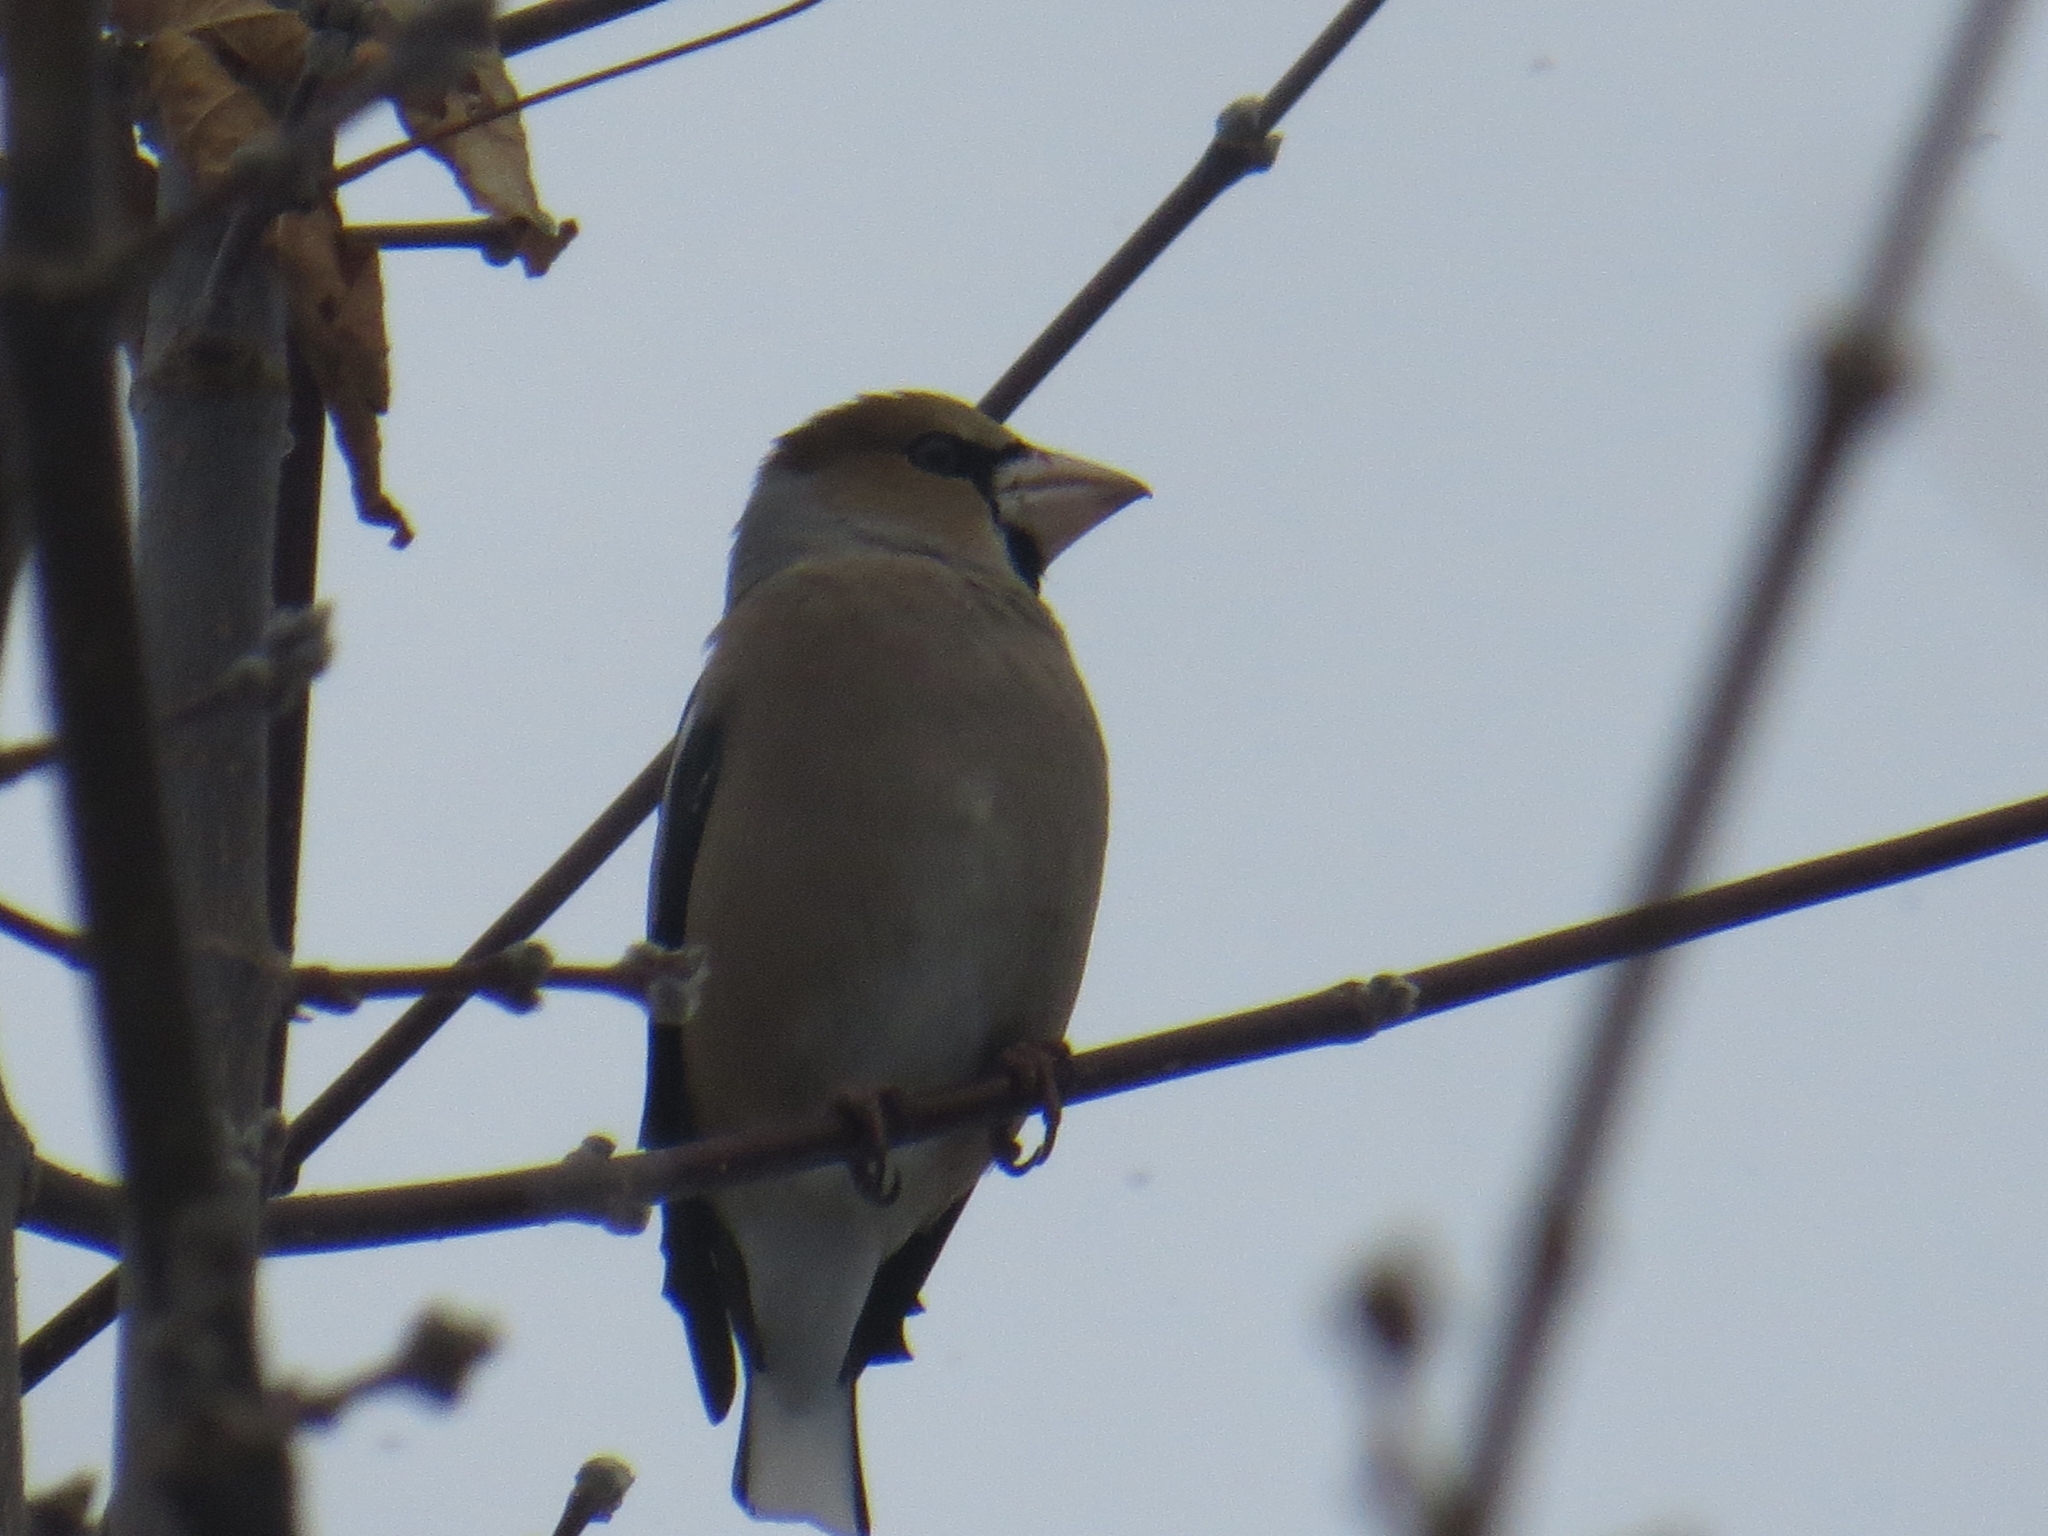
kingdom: Animalia
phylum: Chordata
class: Aves
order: Passeriformes
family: Fringillidae
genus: Coccothraustes
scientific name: Coccothraustes coccothraustes
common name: Hawfinch
